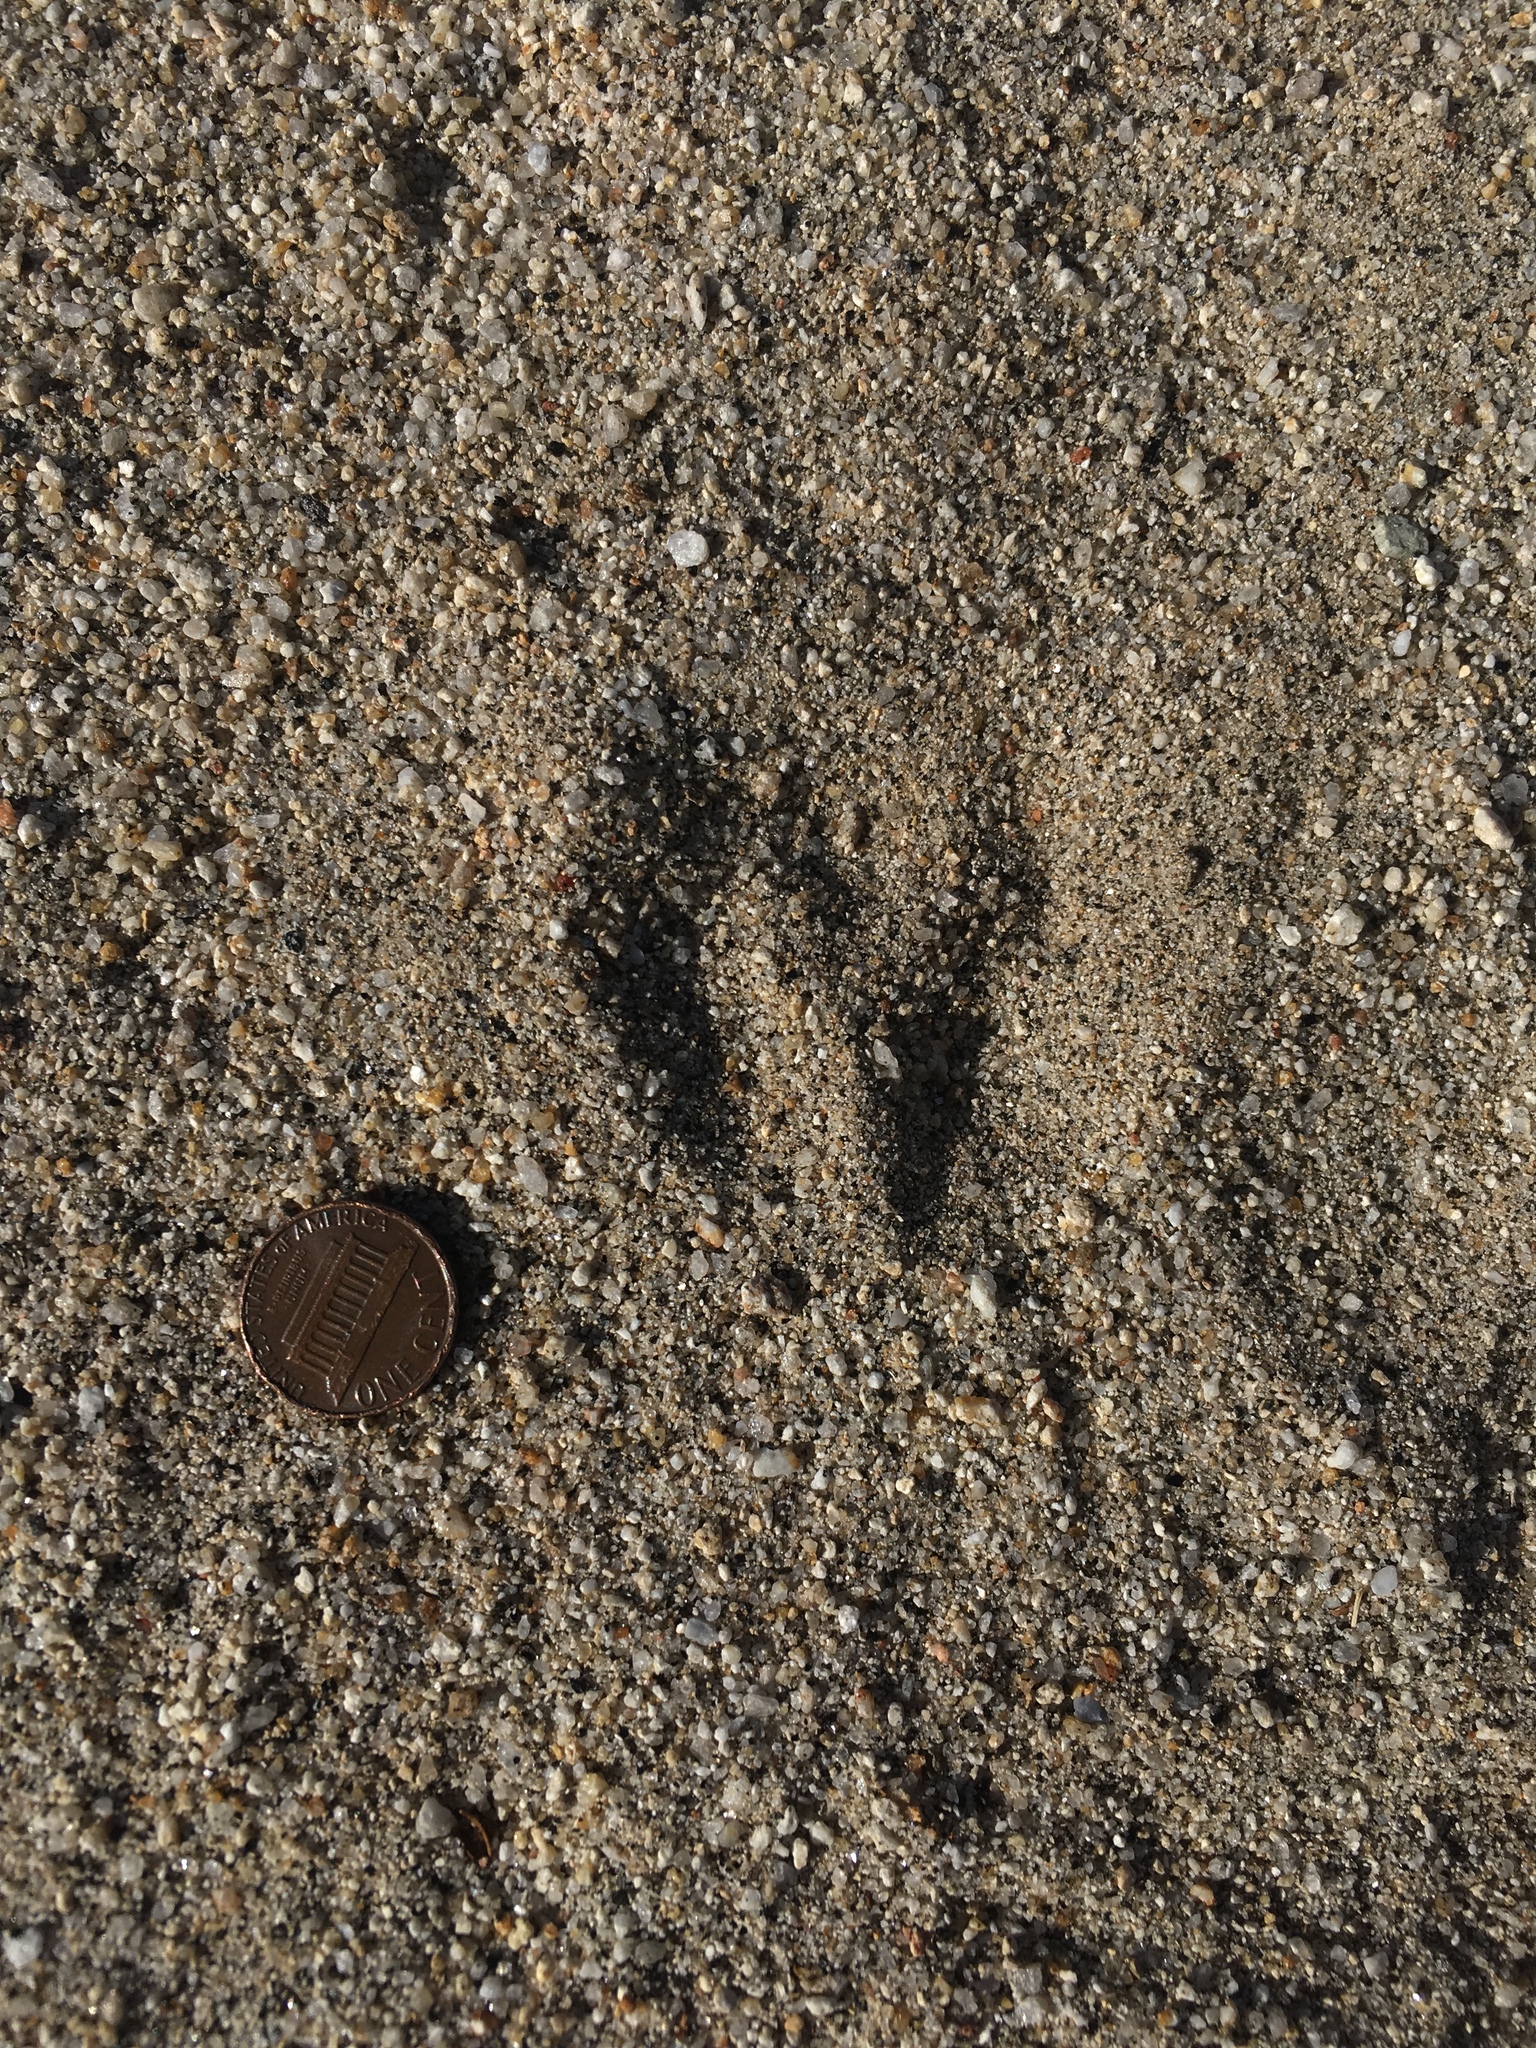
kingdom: Animalia
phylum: Chordata
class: Mammalia
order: Rodentia
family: Heteromyidae
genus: Dipodomys
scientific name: Dipodomys deserti
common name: Desert kangaroo rat
